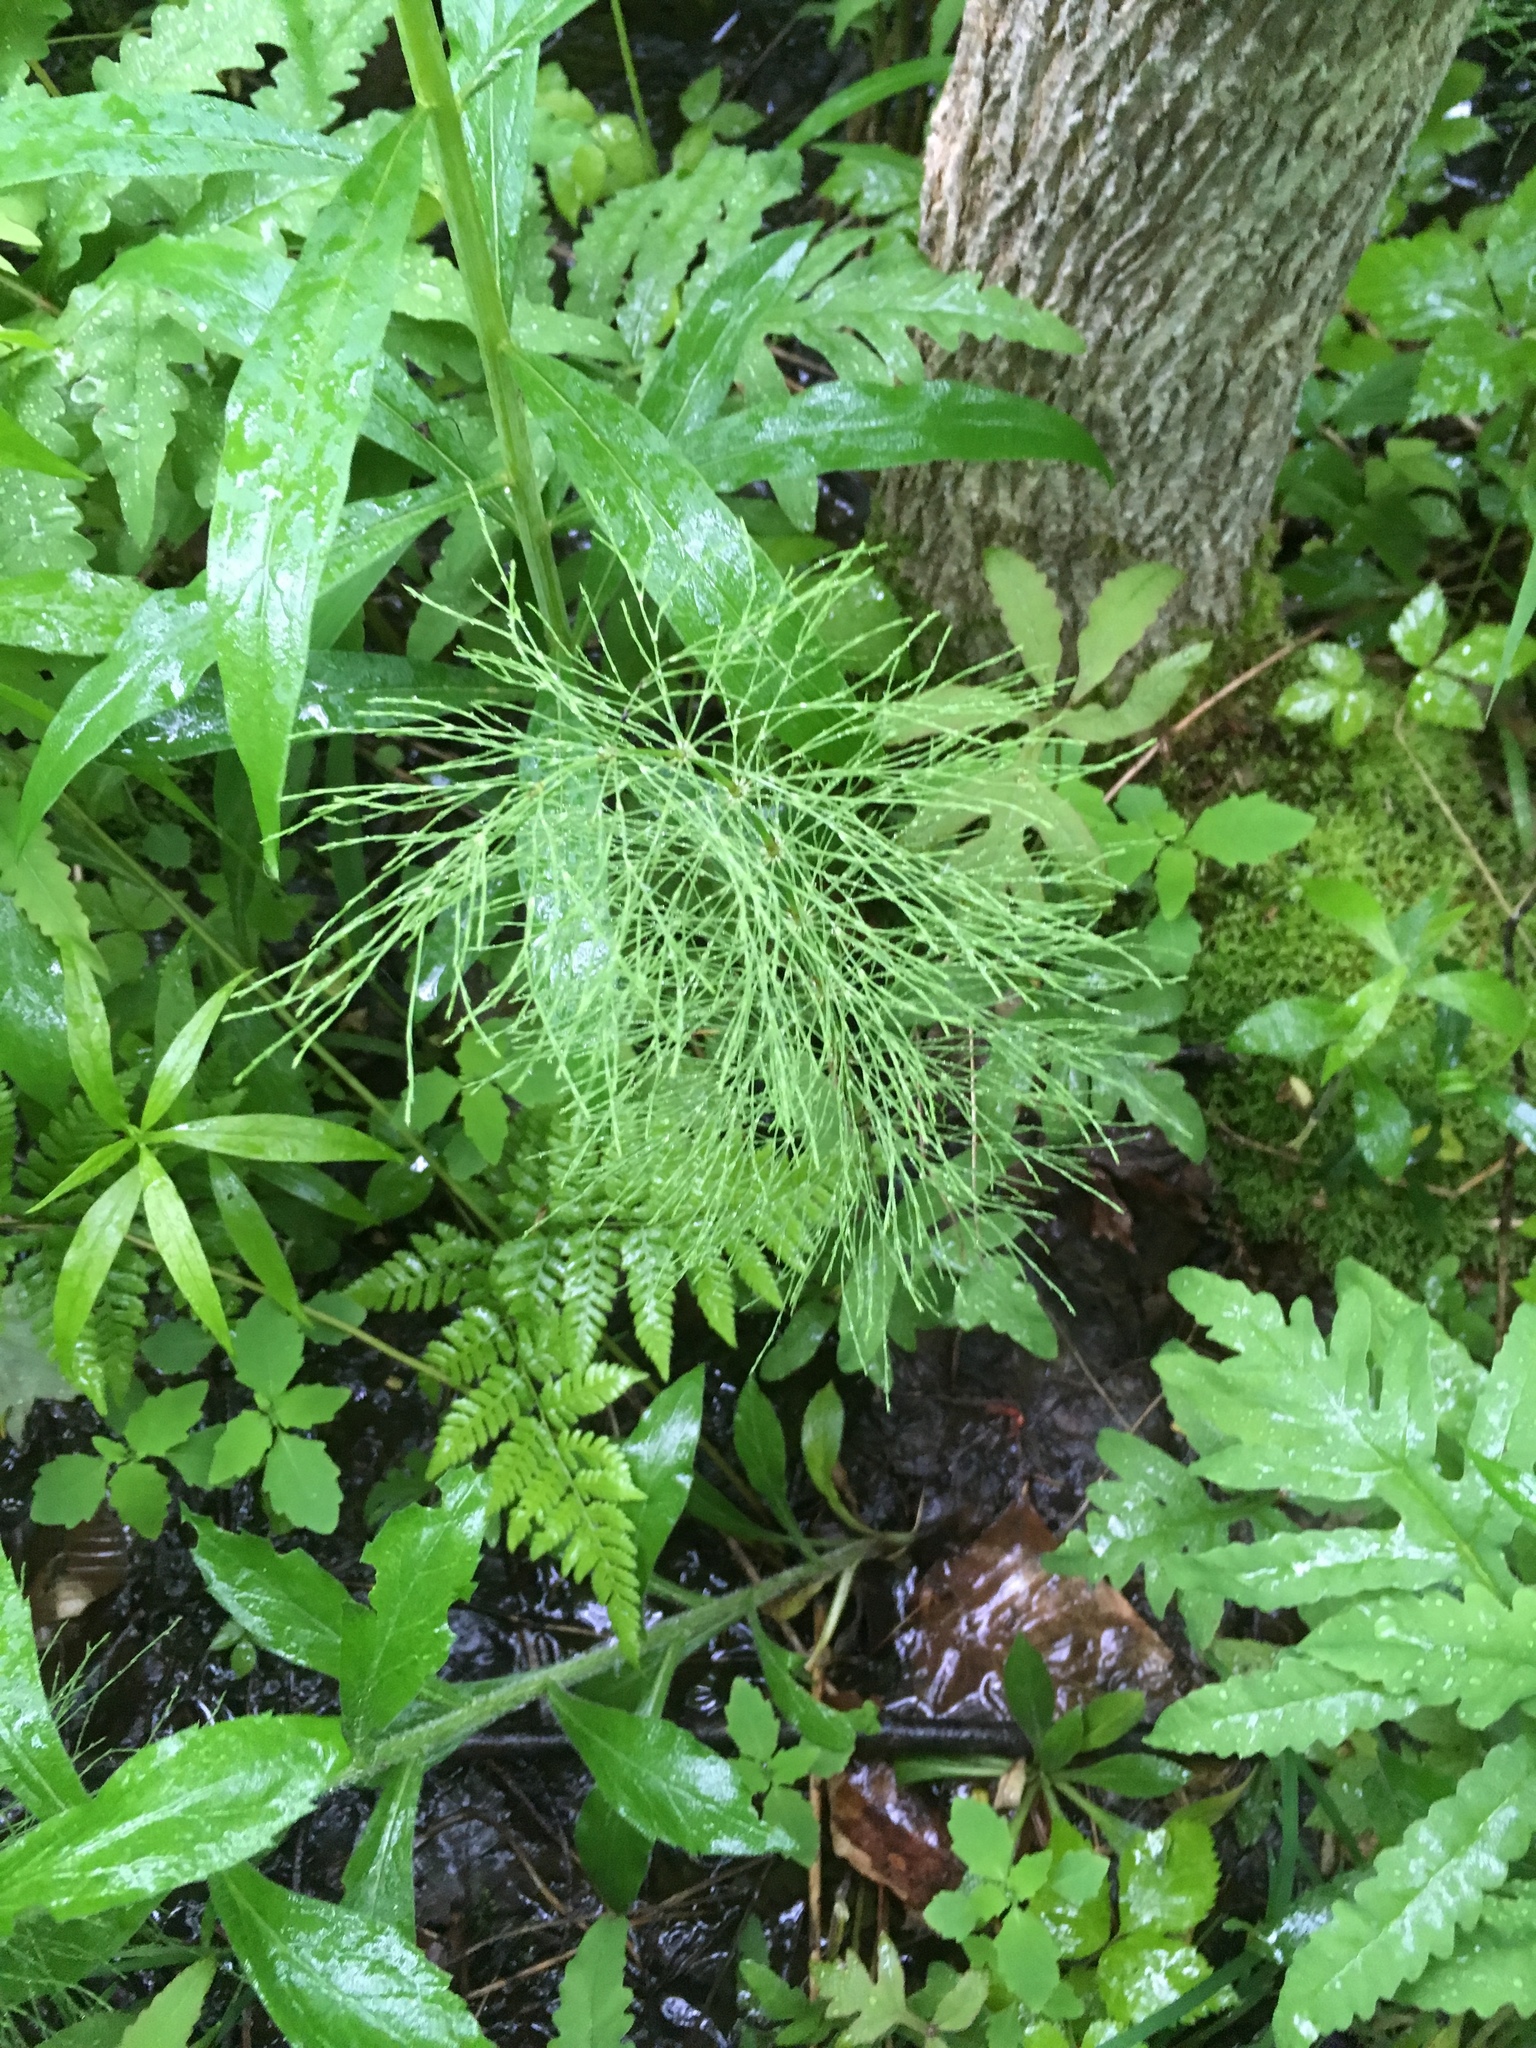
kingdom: Plantae
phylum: Tracheophyta
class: Polypodiopsida
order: Equisetales
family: Equisetaceae
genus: Equisetum
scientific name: Equisetum sylvaticum
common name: Wood horsetail
